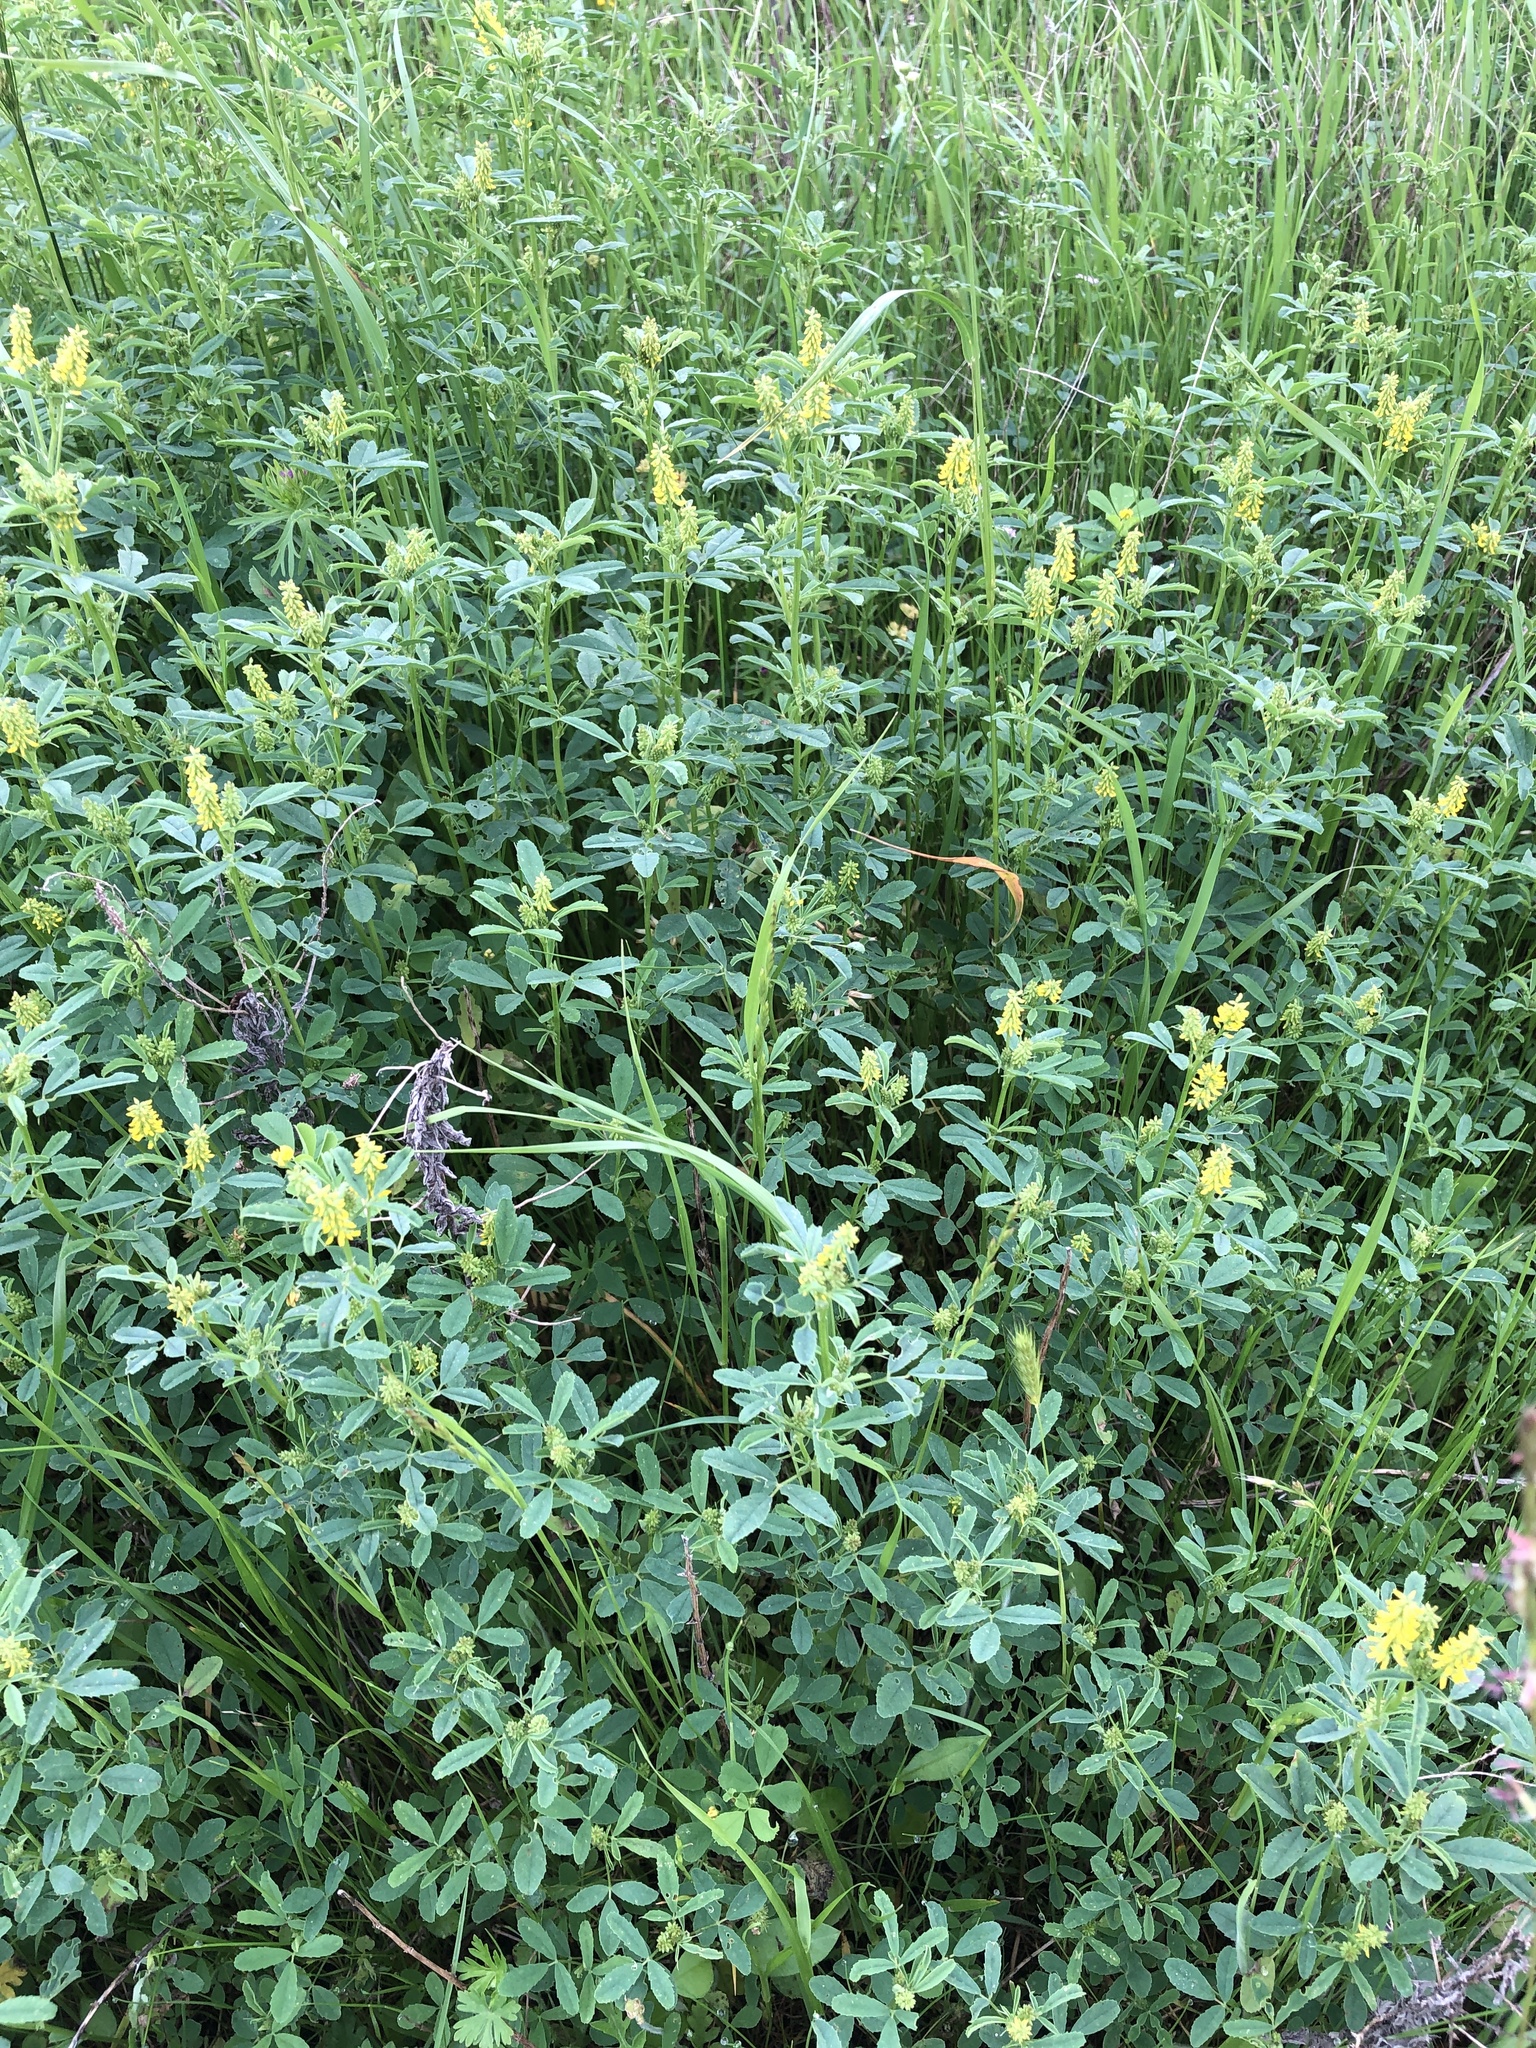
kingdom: Plantae
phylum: Tracheophyta
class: Magnoliopsida
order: Fabales
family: Fabaceae
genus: Melilotus
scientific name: Melilotus indicus
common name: Small melilot
